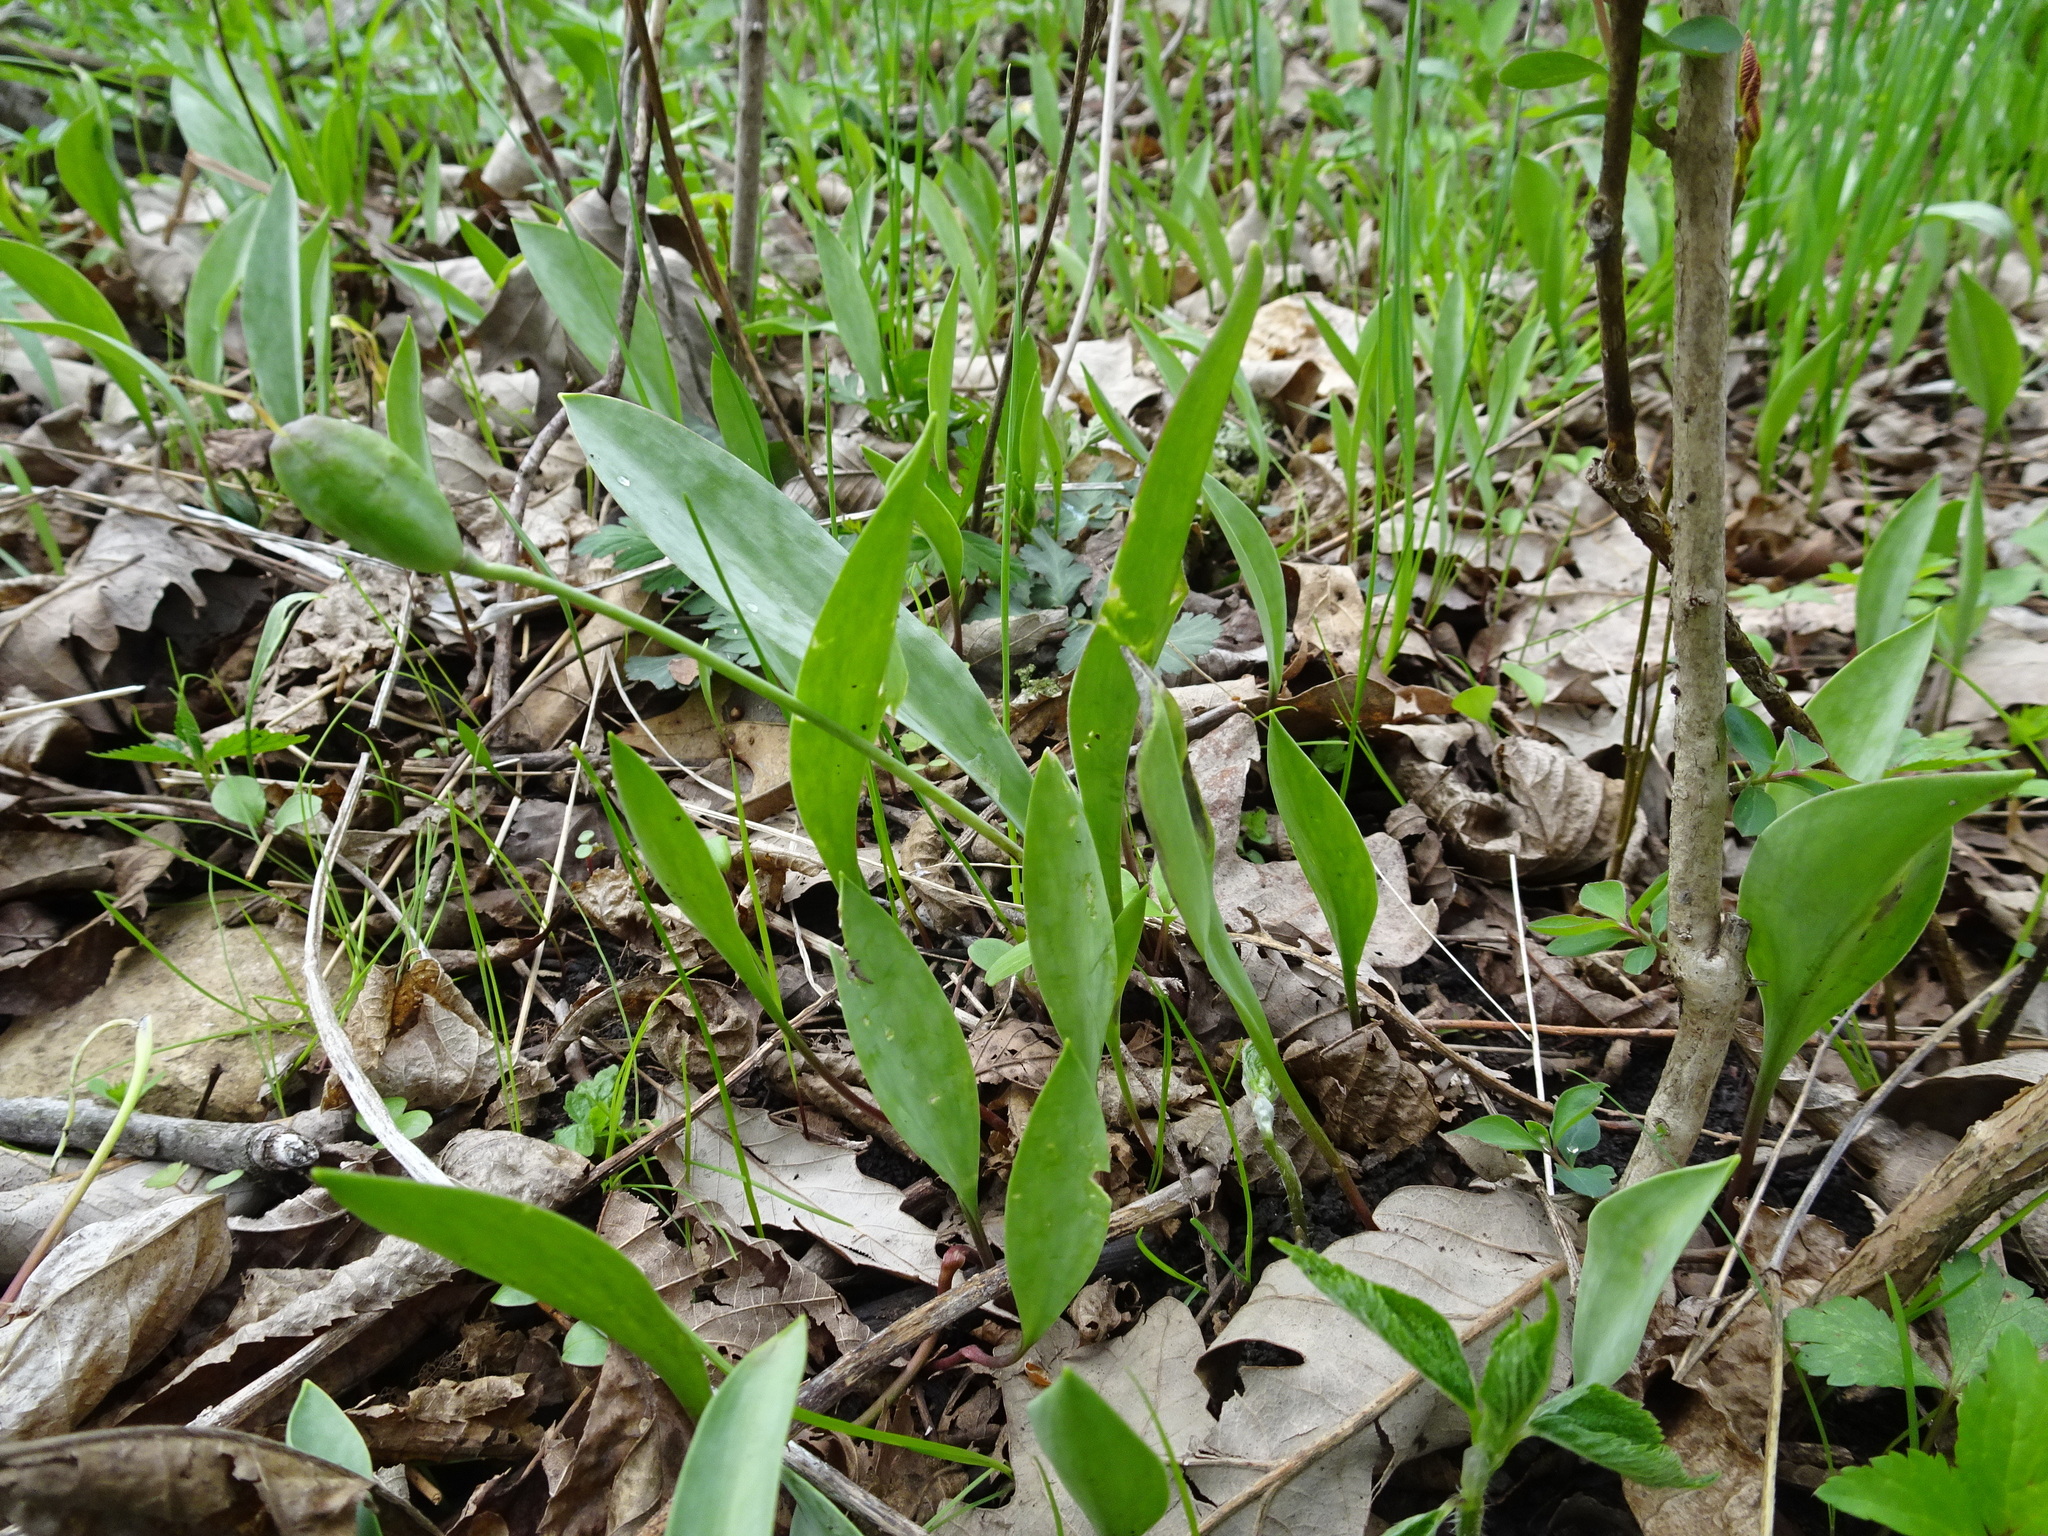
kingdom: Plantae
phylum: Tracheophyta
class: Liliopsida
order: Liliales
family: Liliaceae
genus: Erythronium
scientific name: Erythronium albidum
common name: White trout-lily
